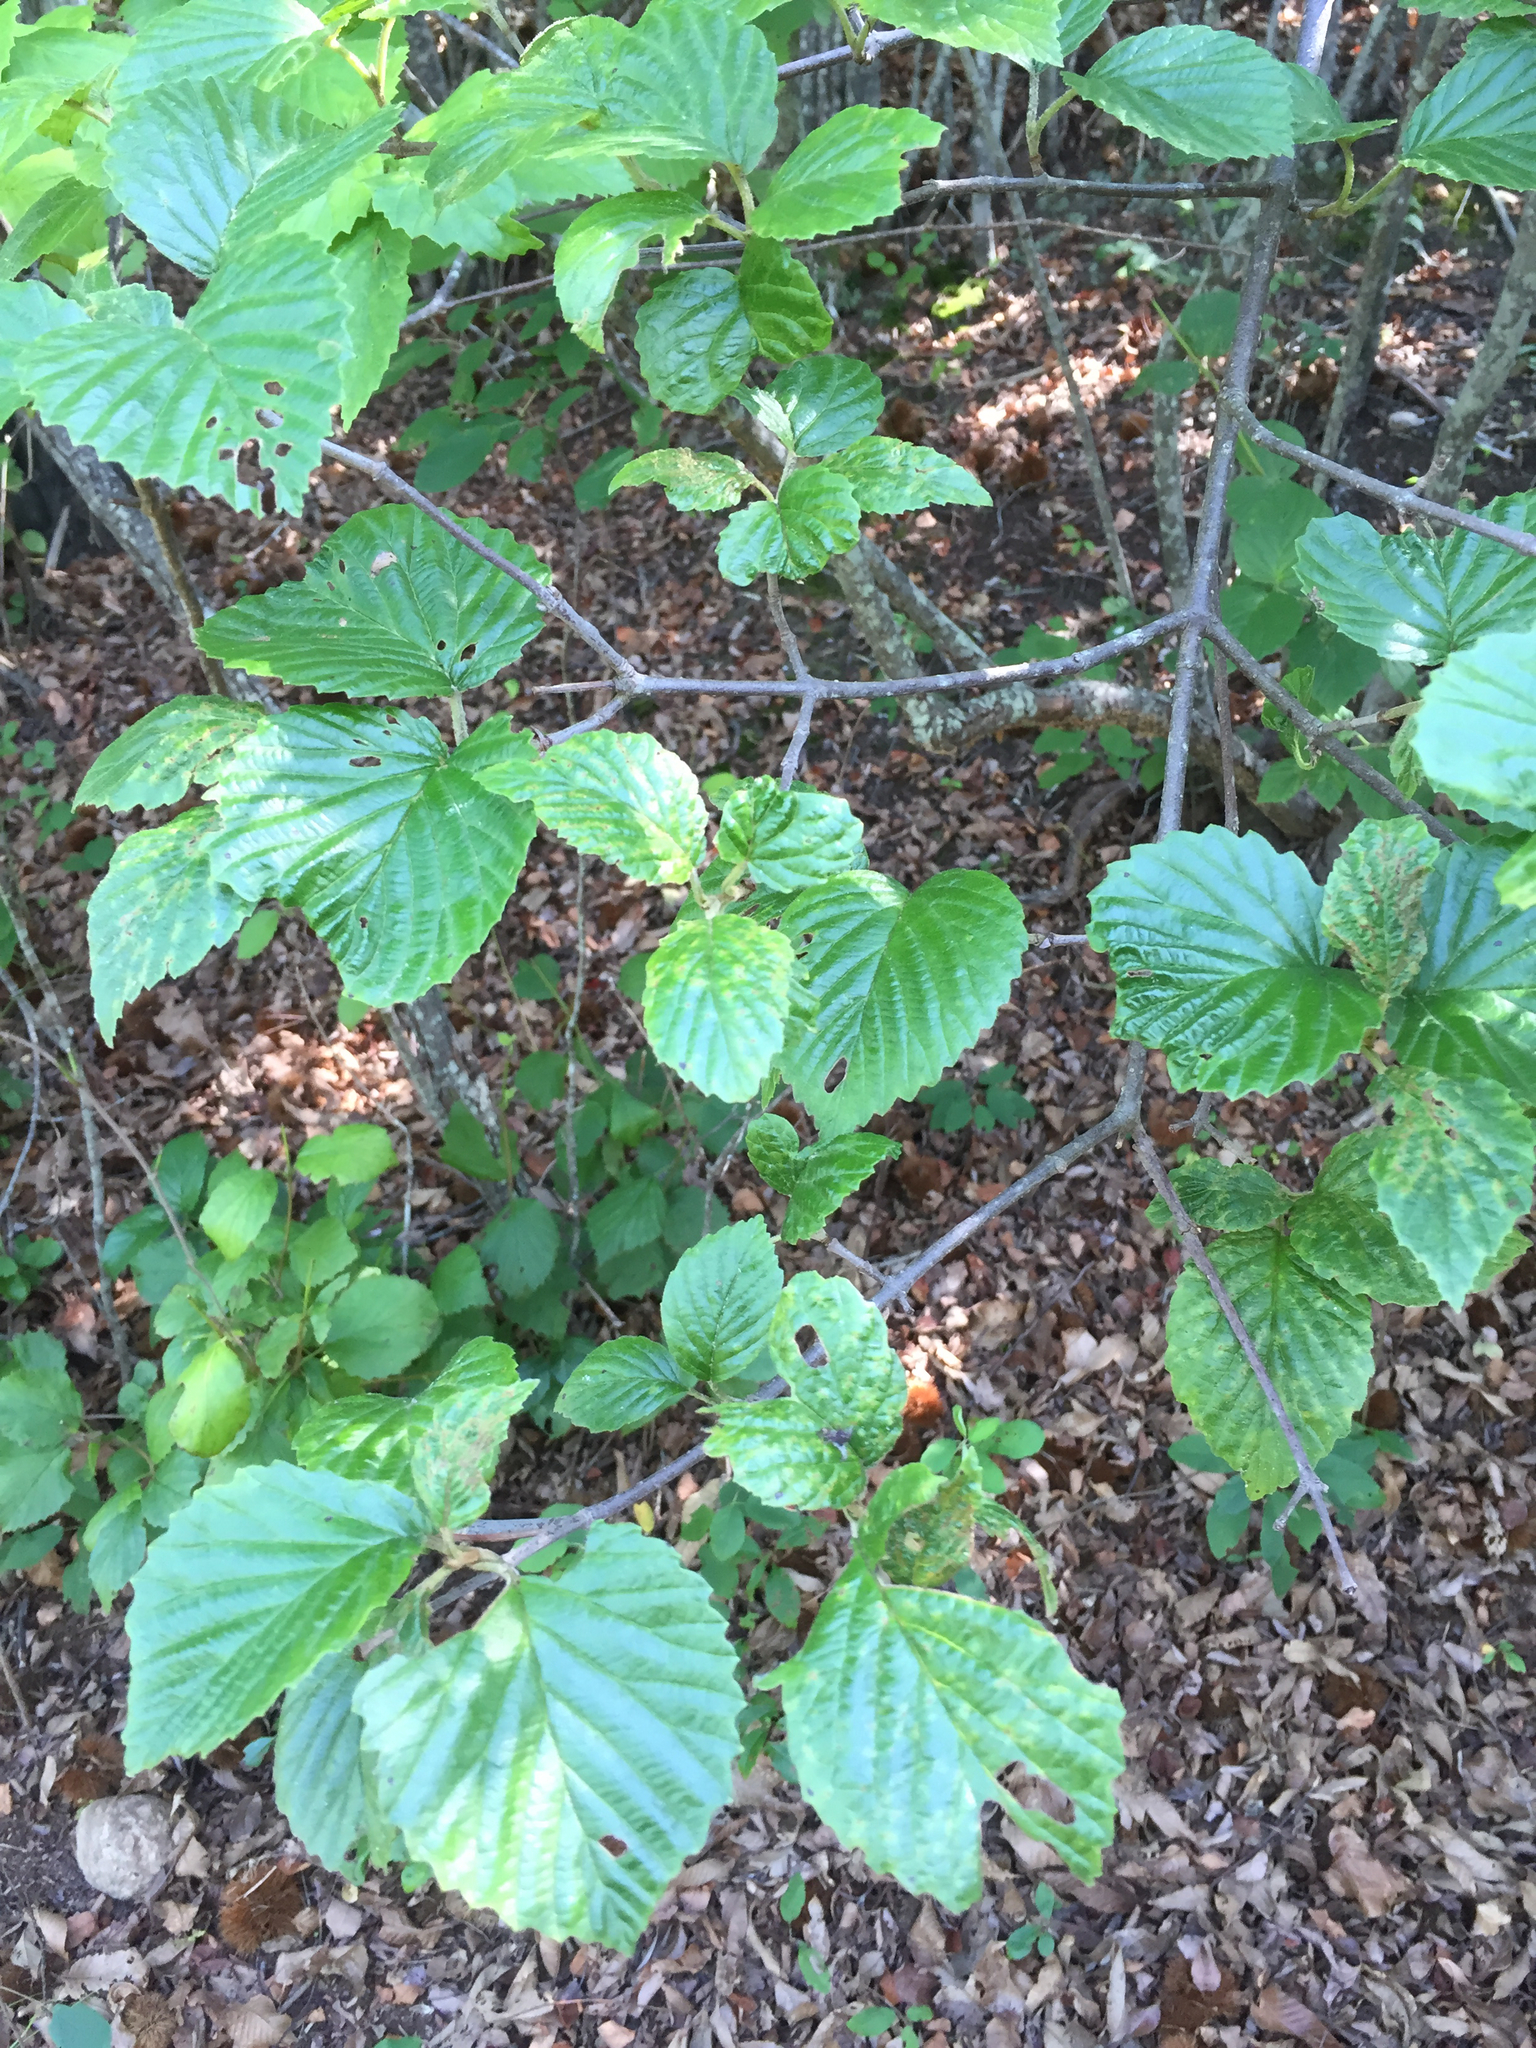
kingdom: Plantae
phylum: Tracheophyta
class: Magnoliopsida
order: Dipsacales
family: Viburnaceae
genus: Viburnum
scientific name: Viburnum dentatum
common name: Arrow-wood
